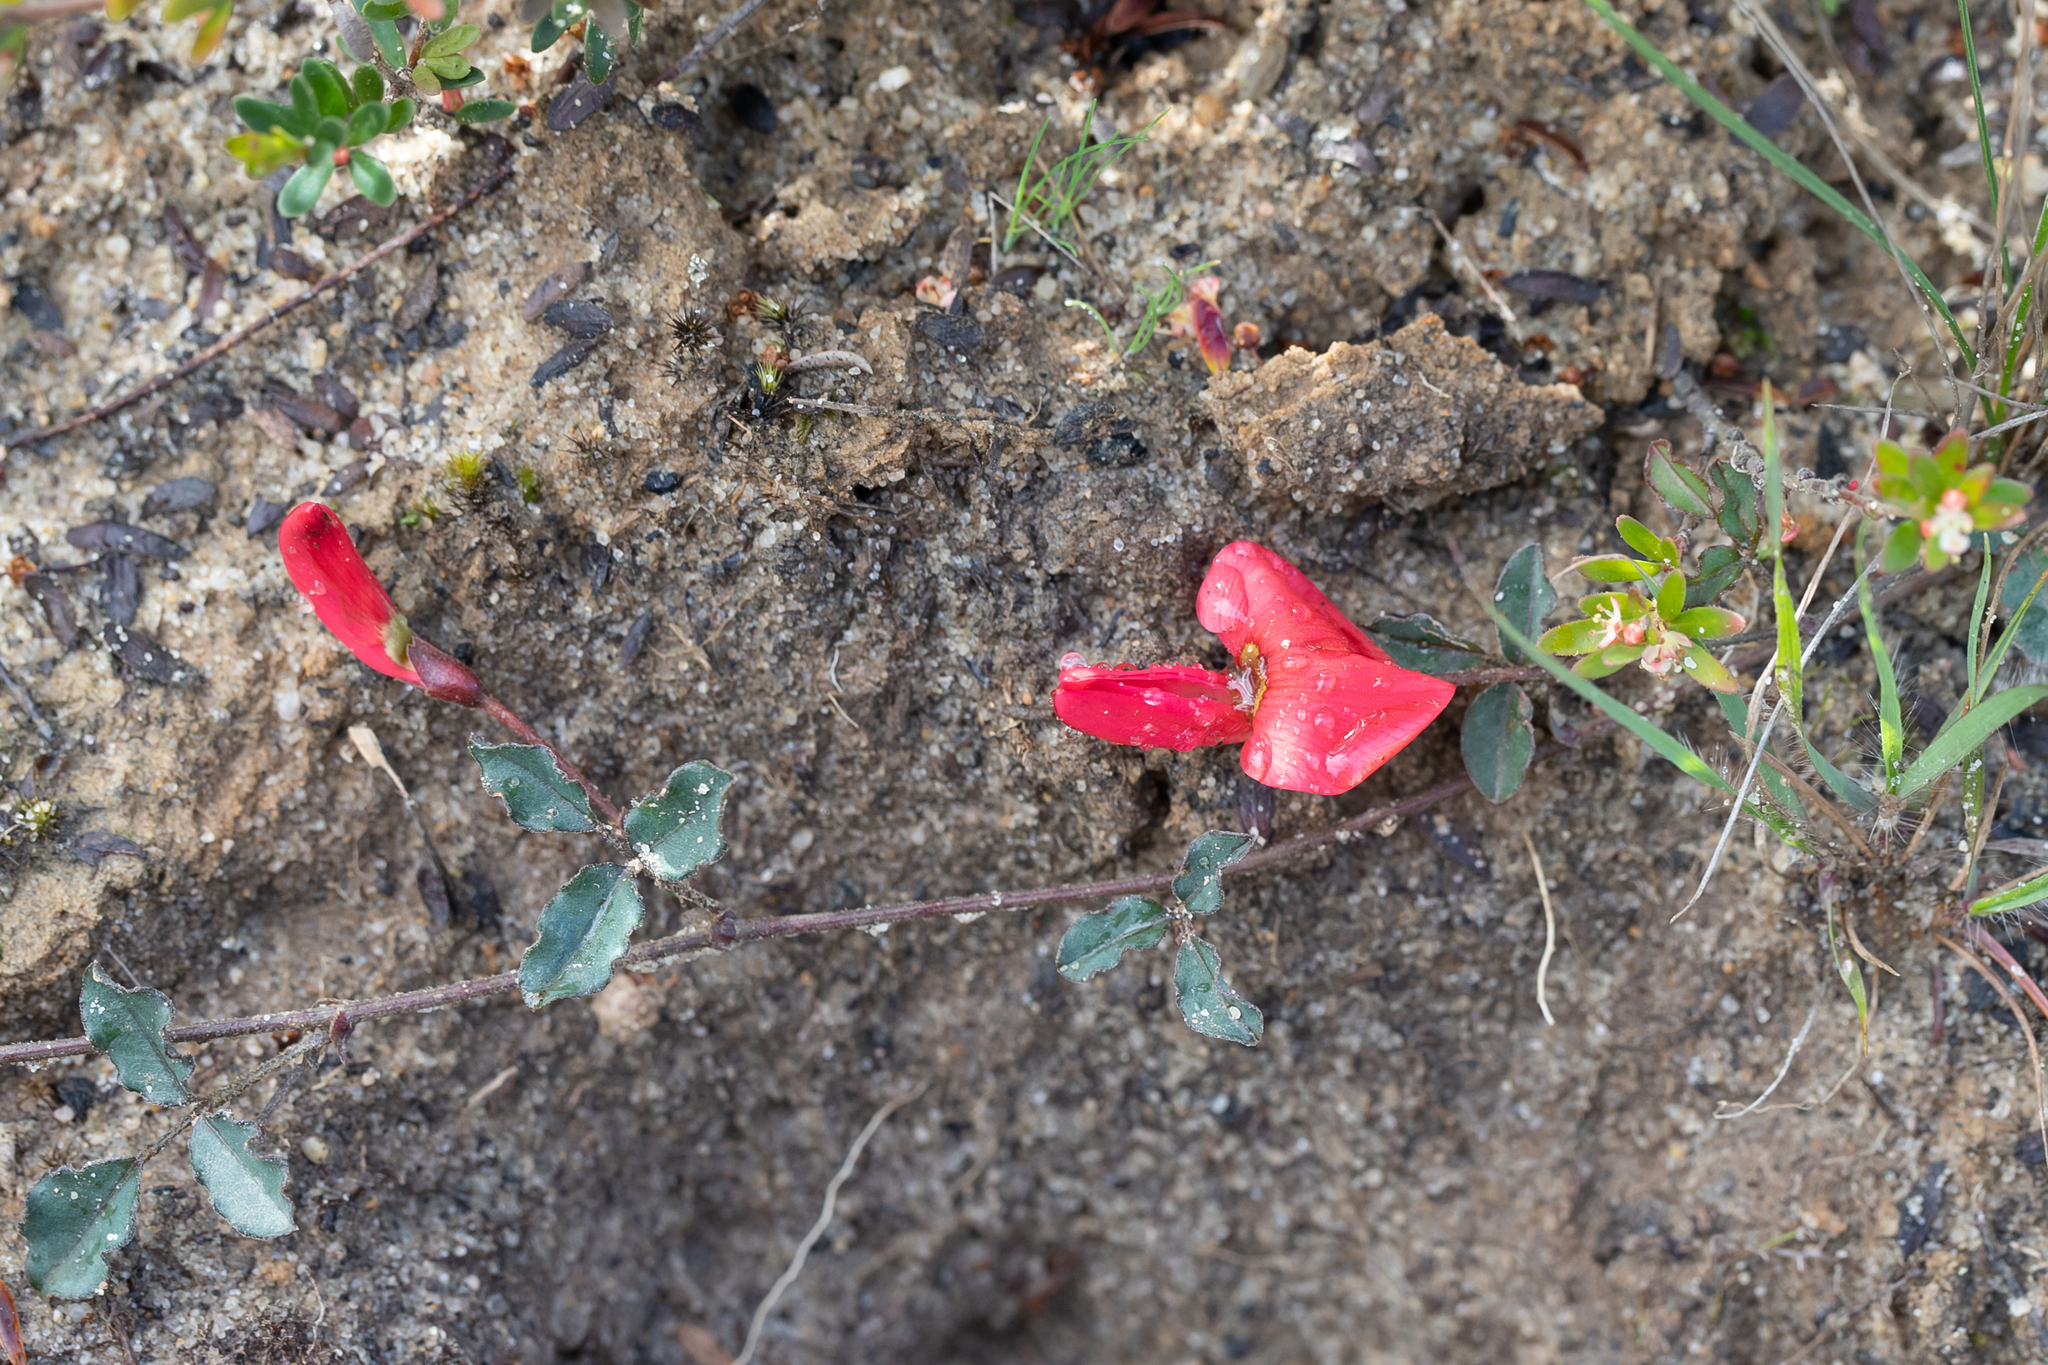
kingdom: Plantae
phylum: Tracheophyta
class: Magnoliopsida
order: Fabales
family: Fabaceae
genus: Kennedia
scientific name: Kennedia prostrata
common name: Running-postman
